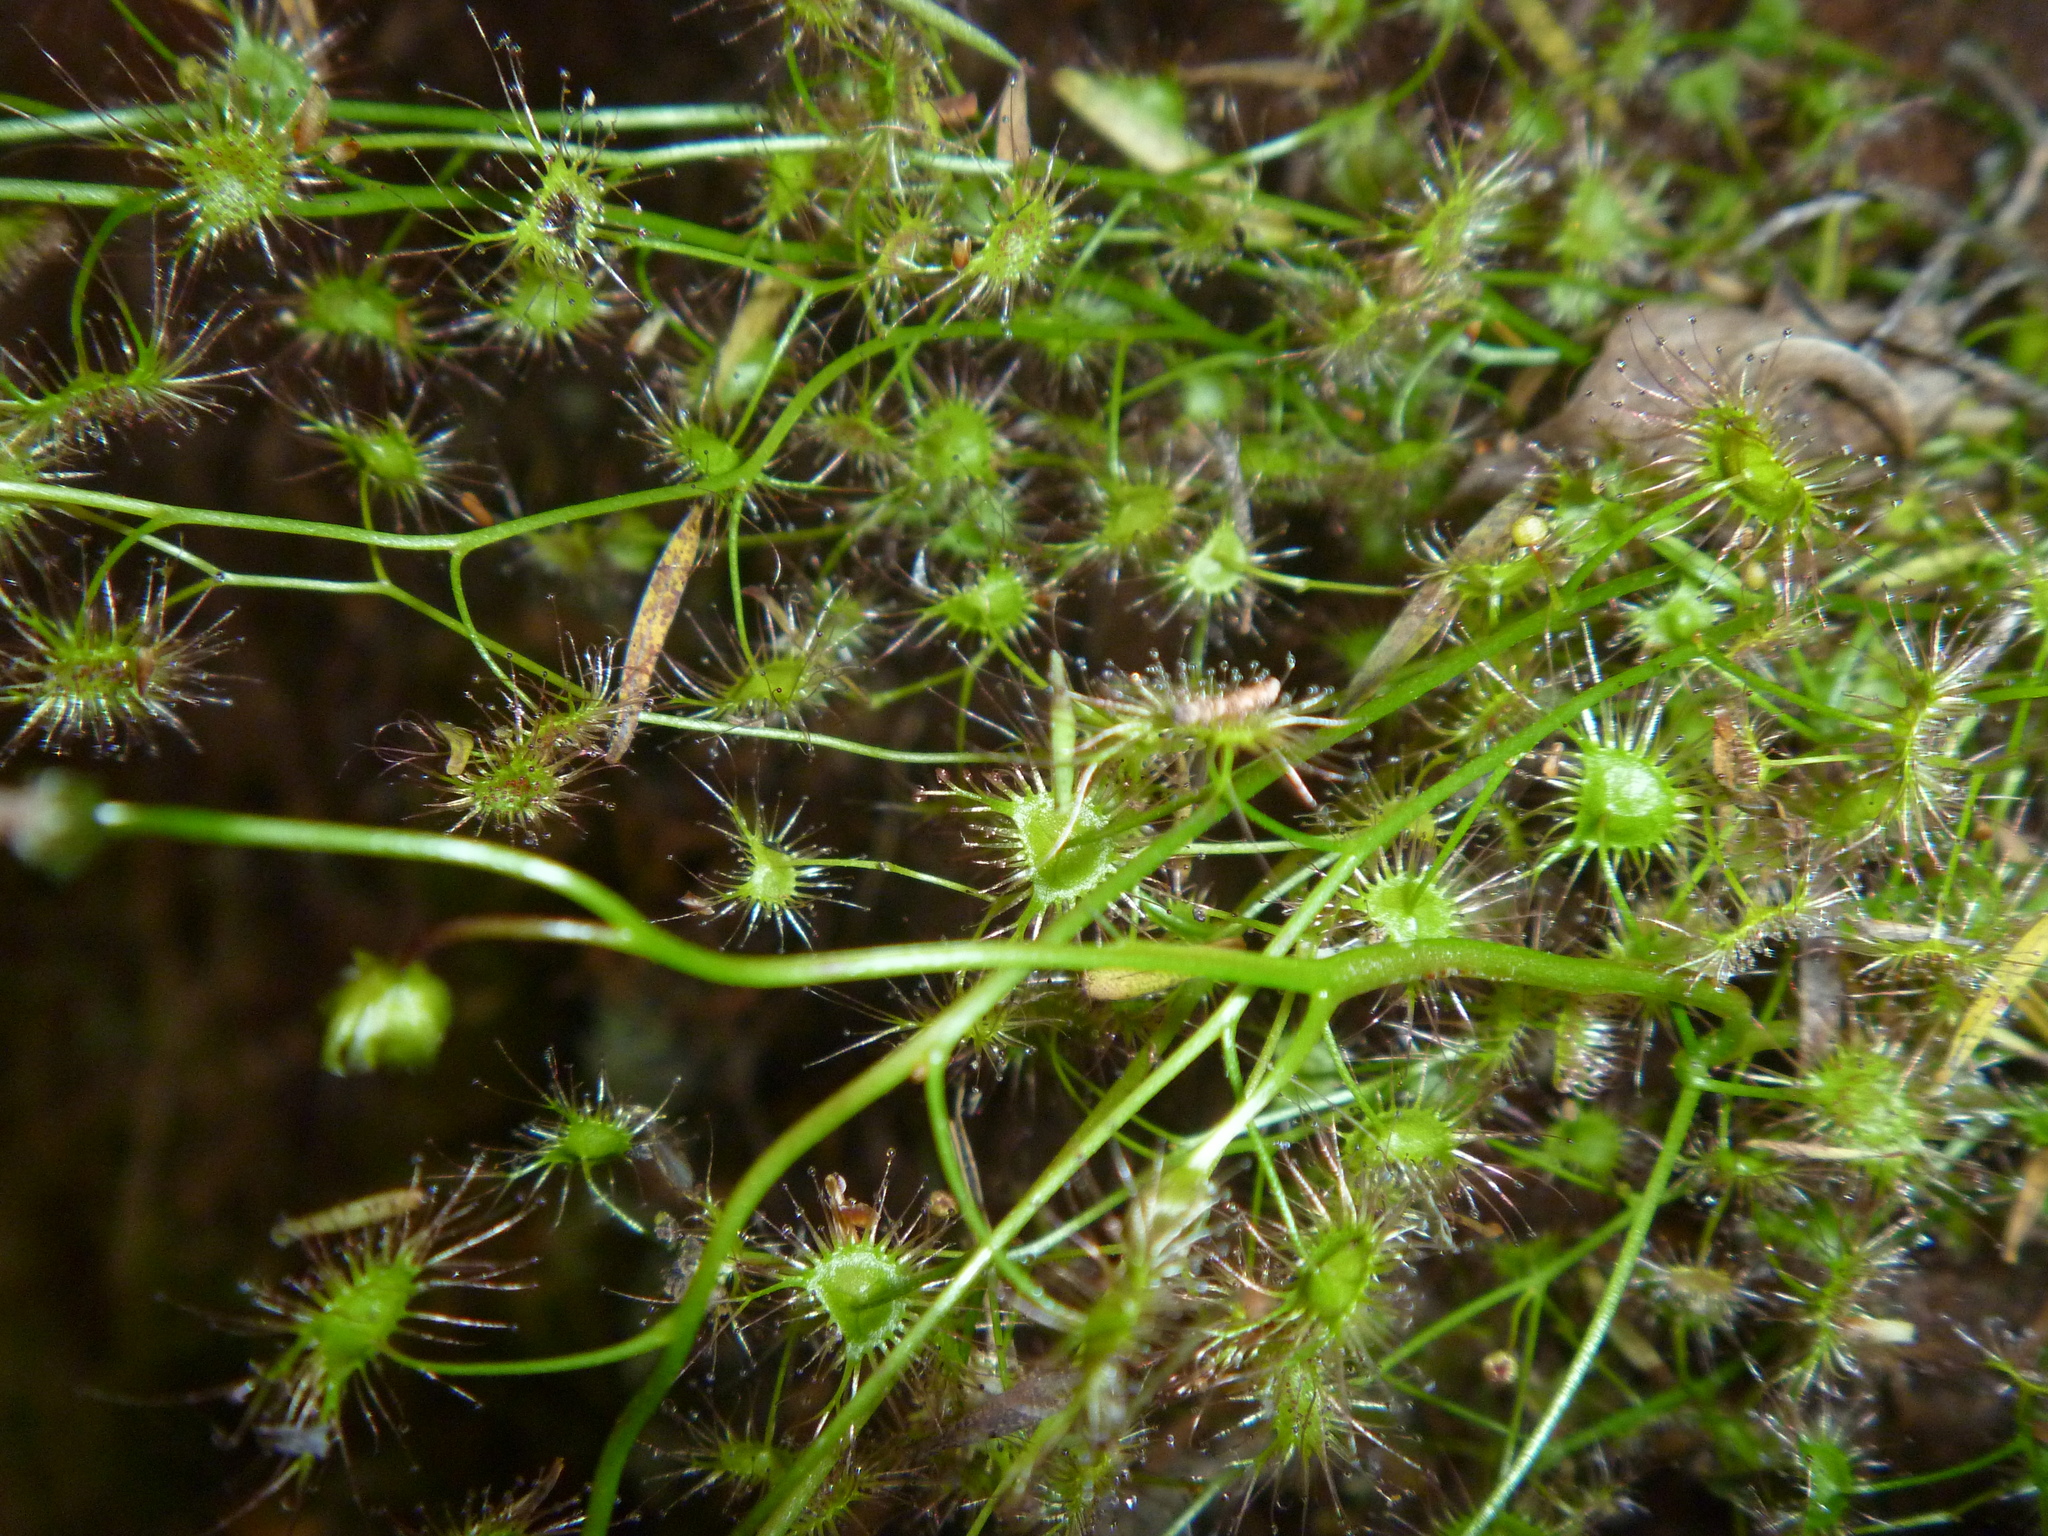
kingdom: Plantae
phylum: Tracheophyta
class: Magnoliopsida
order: Caryophyllales
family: Droseraceae
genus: Drosera
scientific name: Drosera peltata
